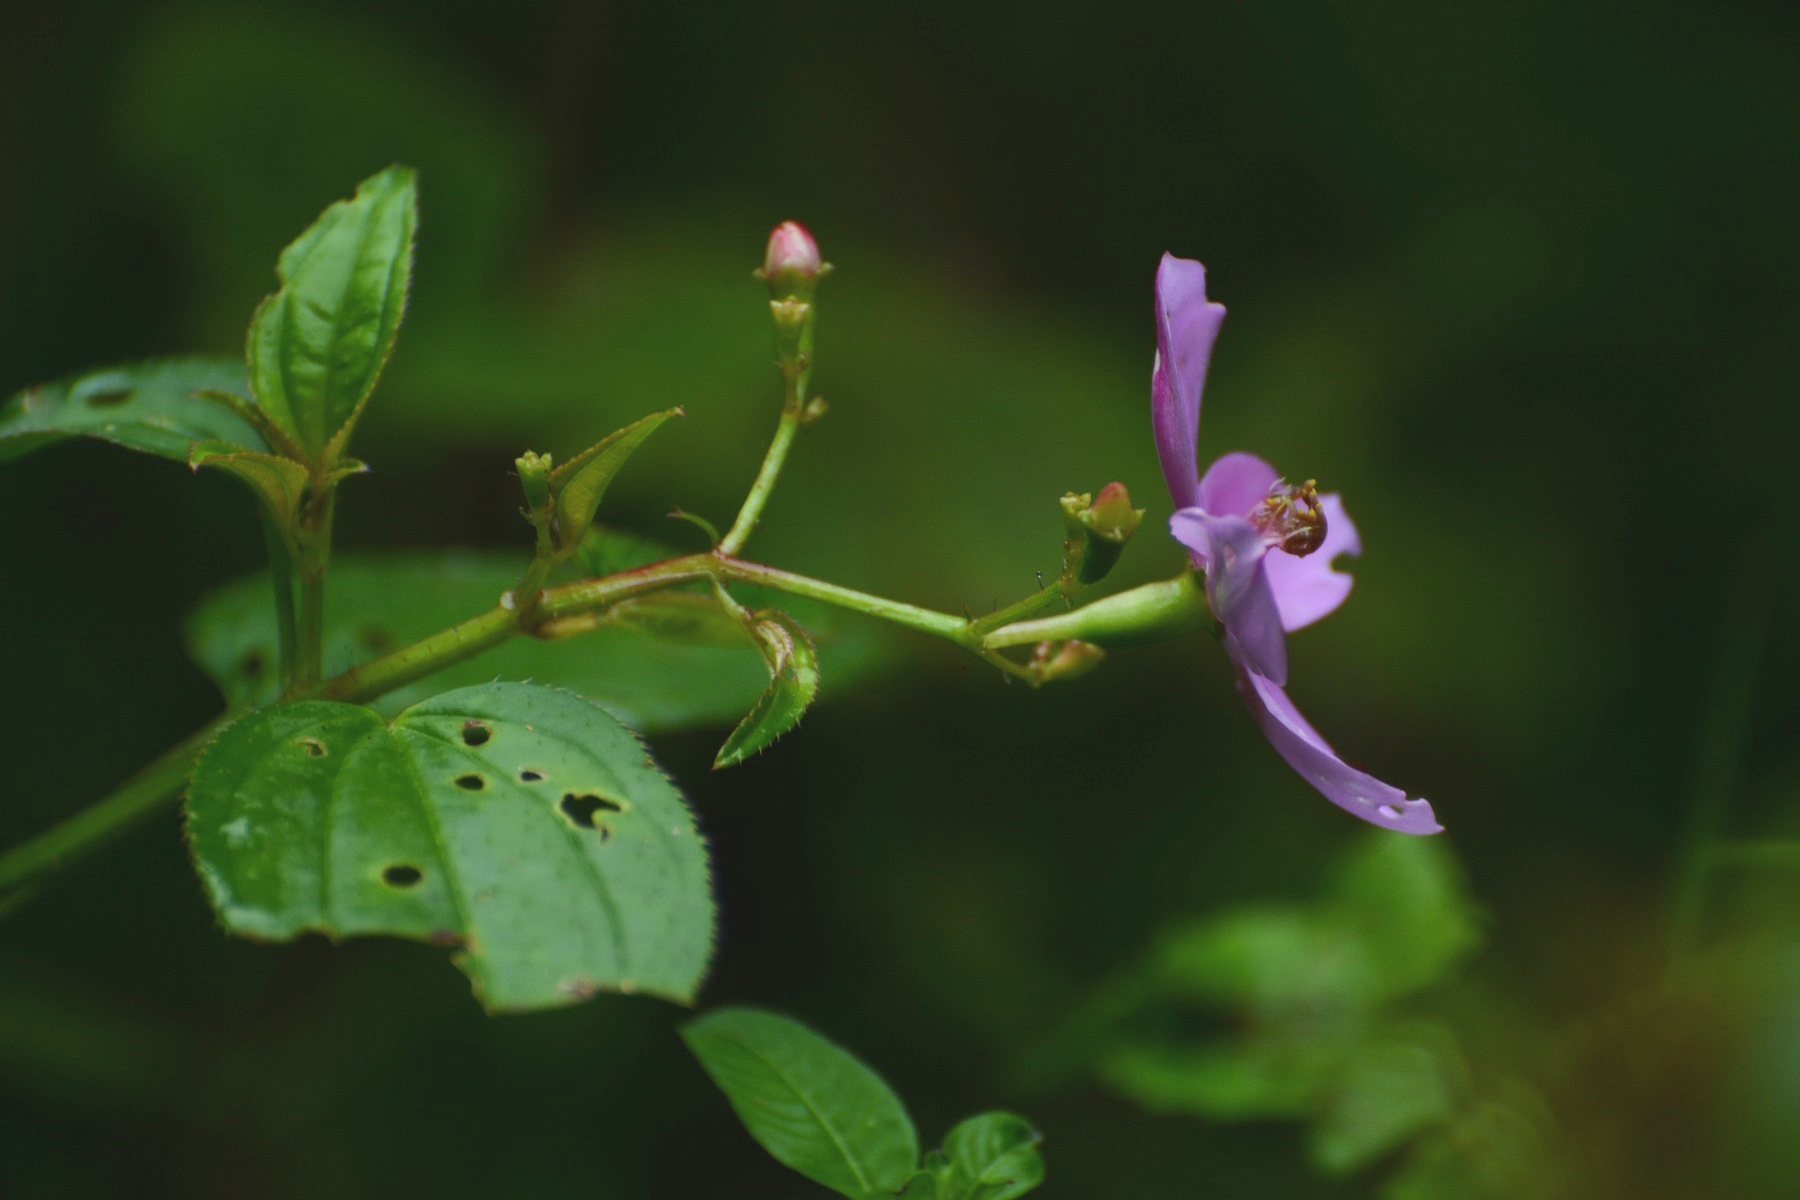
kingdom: Plantae
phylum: Tracheophyta
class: Magnoliopsida
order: Myrtales
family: Melastomataceae
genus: Arthrostemma
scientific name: Arthrostemma ciliatum
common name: Everblooming eavender
